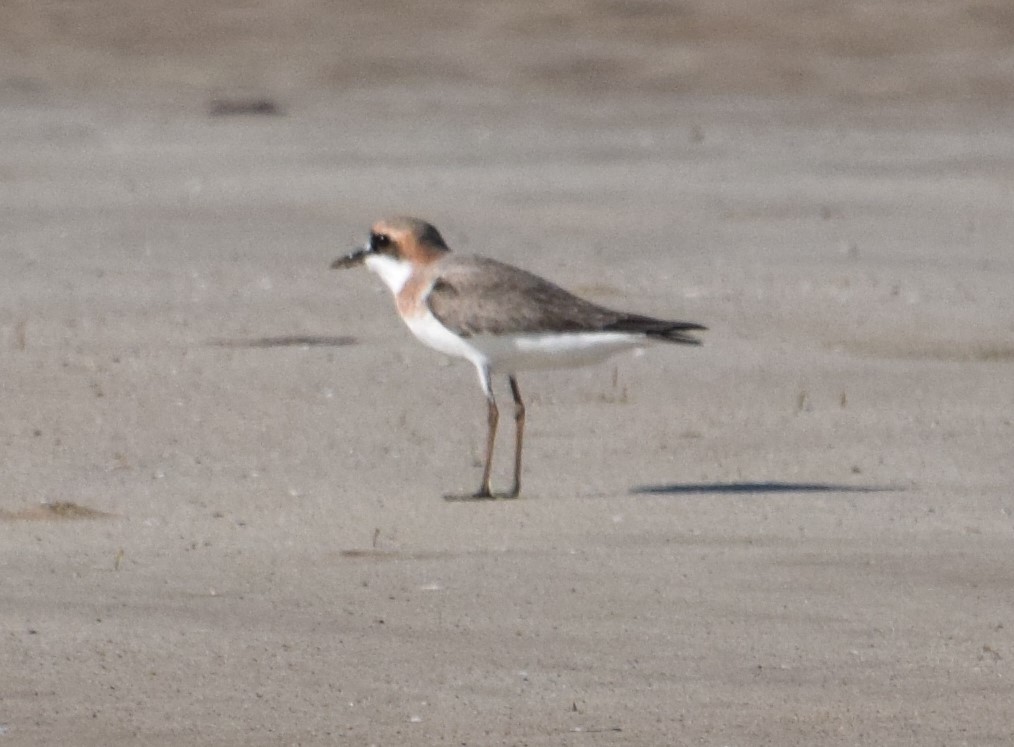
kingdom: Animalia
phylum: Chordata
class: Aves
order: Charadriiformes
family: Charadriidae
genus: Charadrius
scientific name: Charadrius leschenaultii
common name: Greater sand plover
